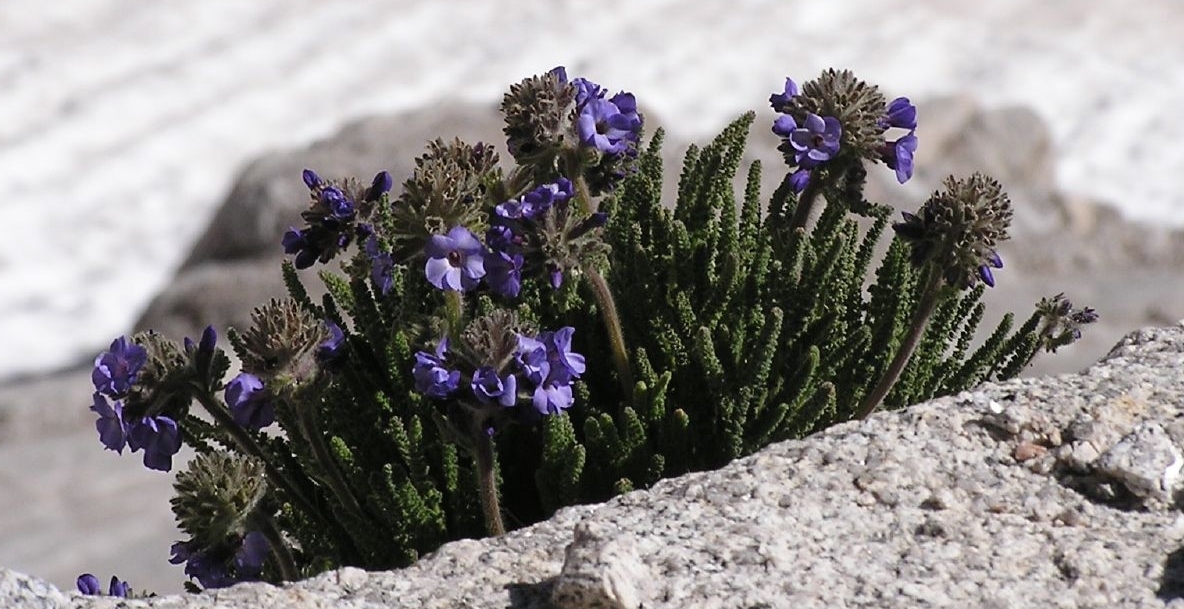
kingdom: Plantae
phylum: Tracheophyta
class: Magnoliopsida
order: Ericales
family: Polemoniaceae
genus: Polemonium
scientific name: Polemonium eximium
